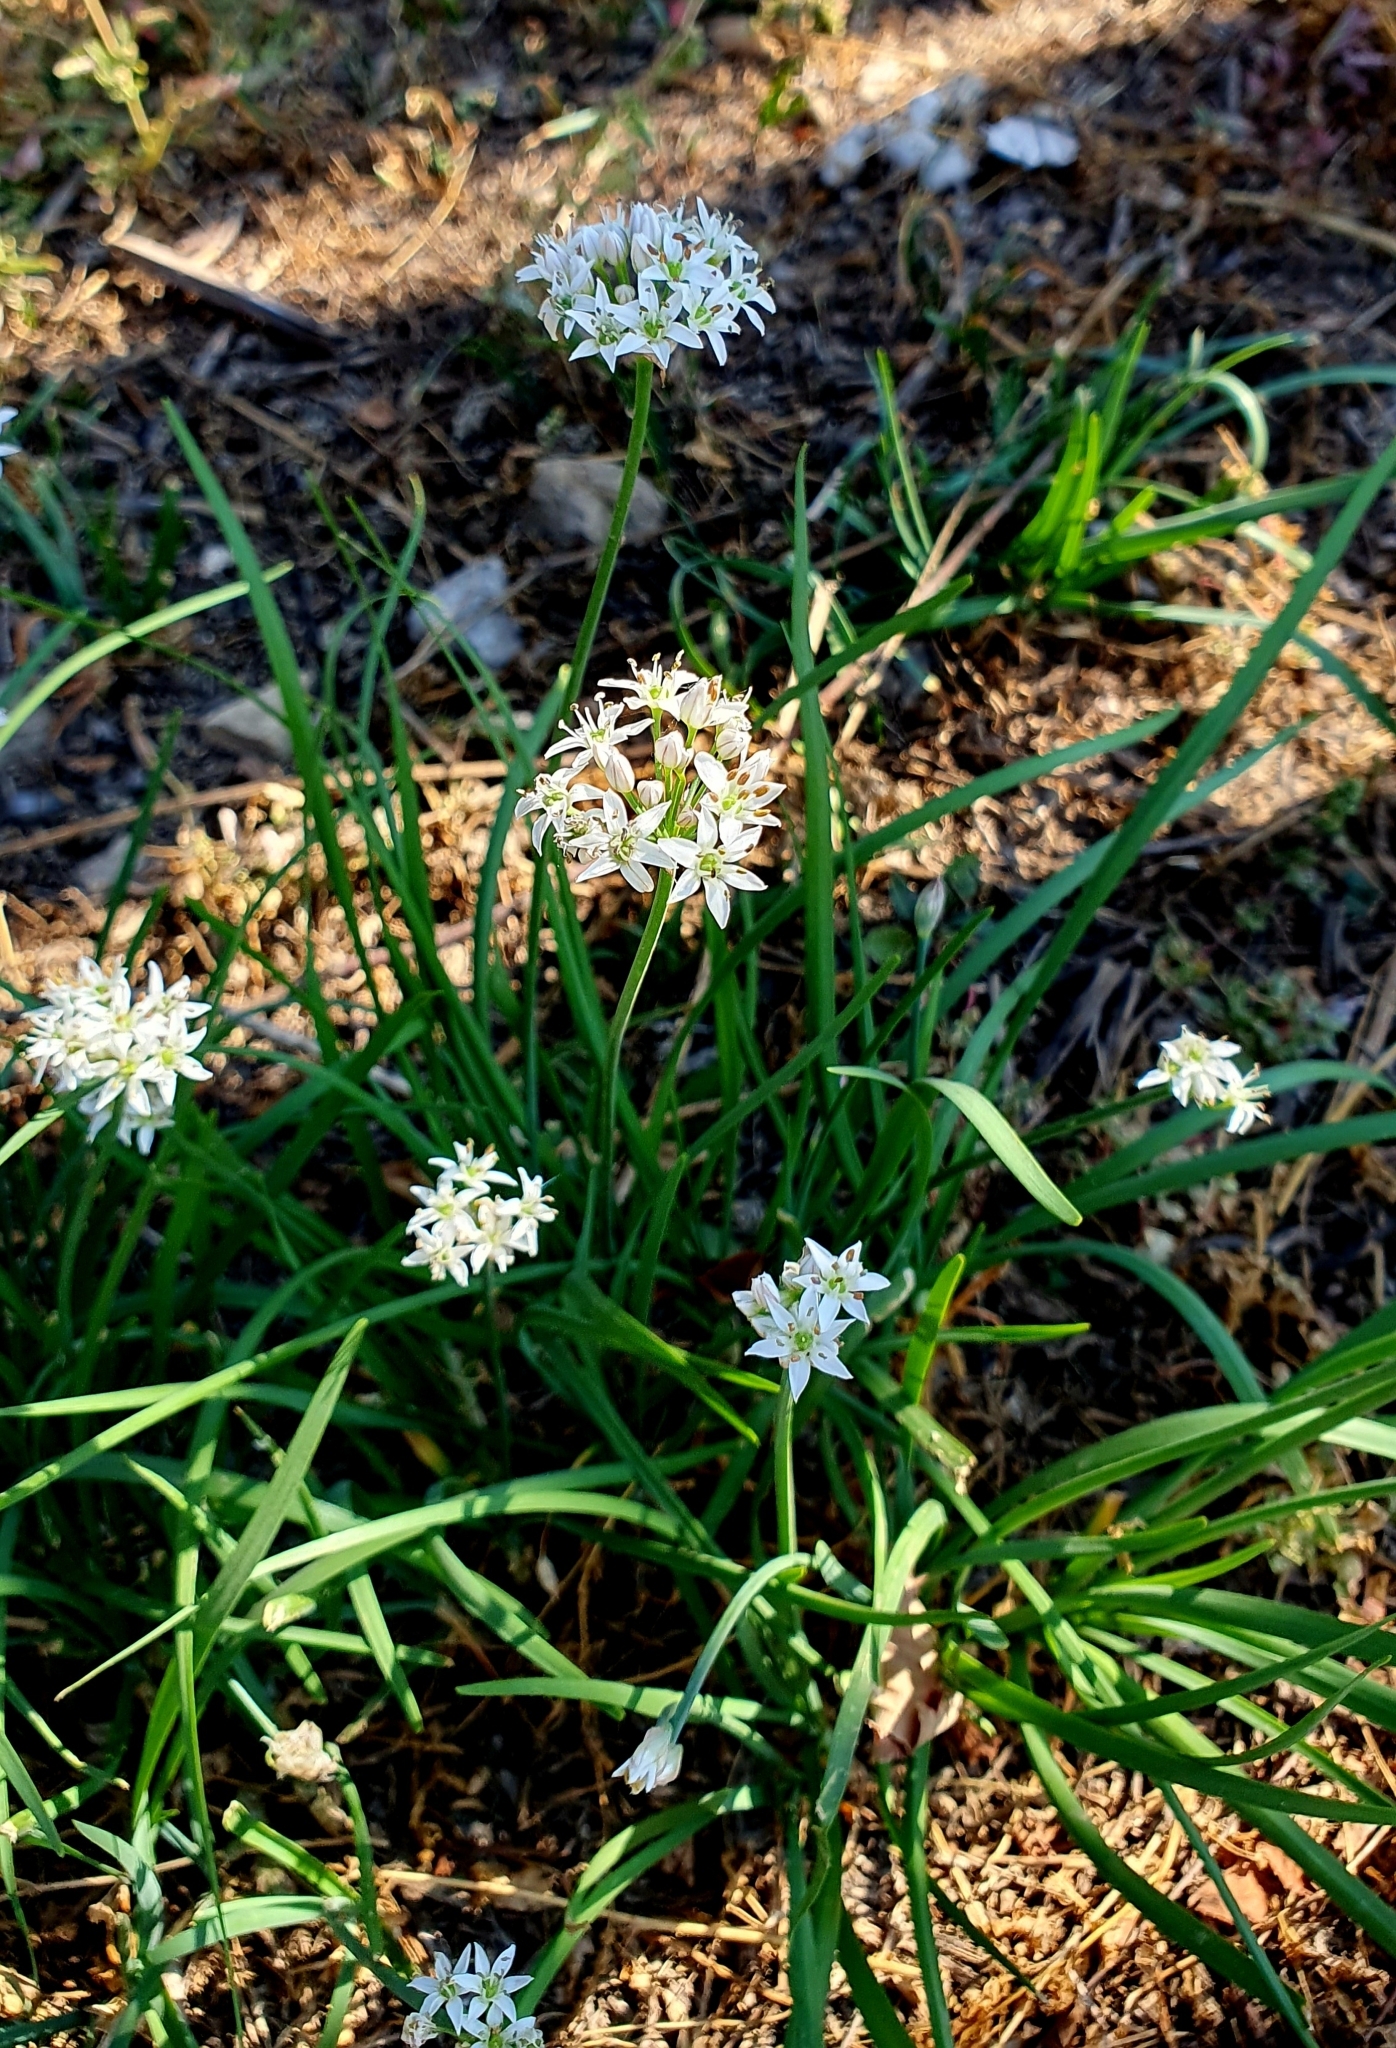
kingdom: Plantae
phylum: Tracheophyta
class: Liliopsida
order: Asparagales
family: Amaryllidaceae
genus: Allium
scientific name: Allium tuberosum
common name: Chinese chives
